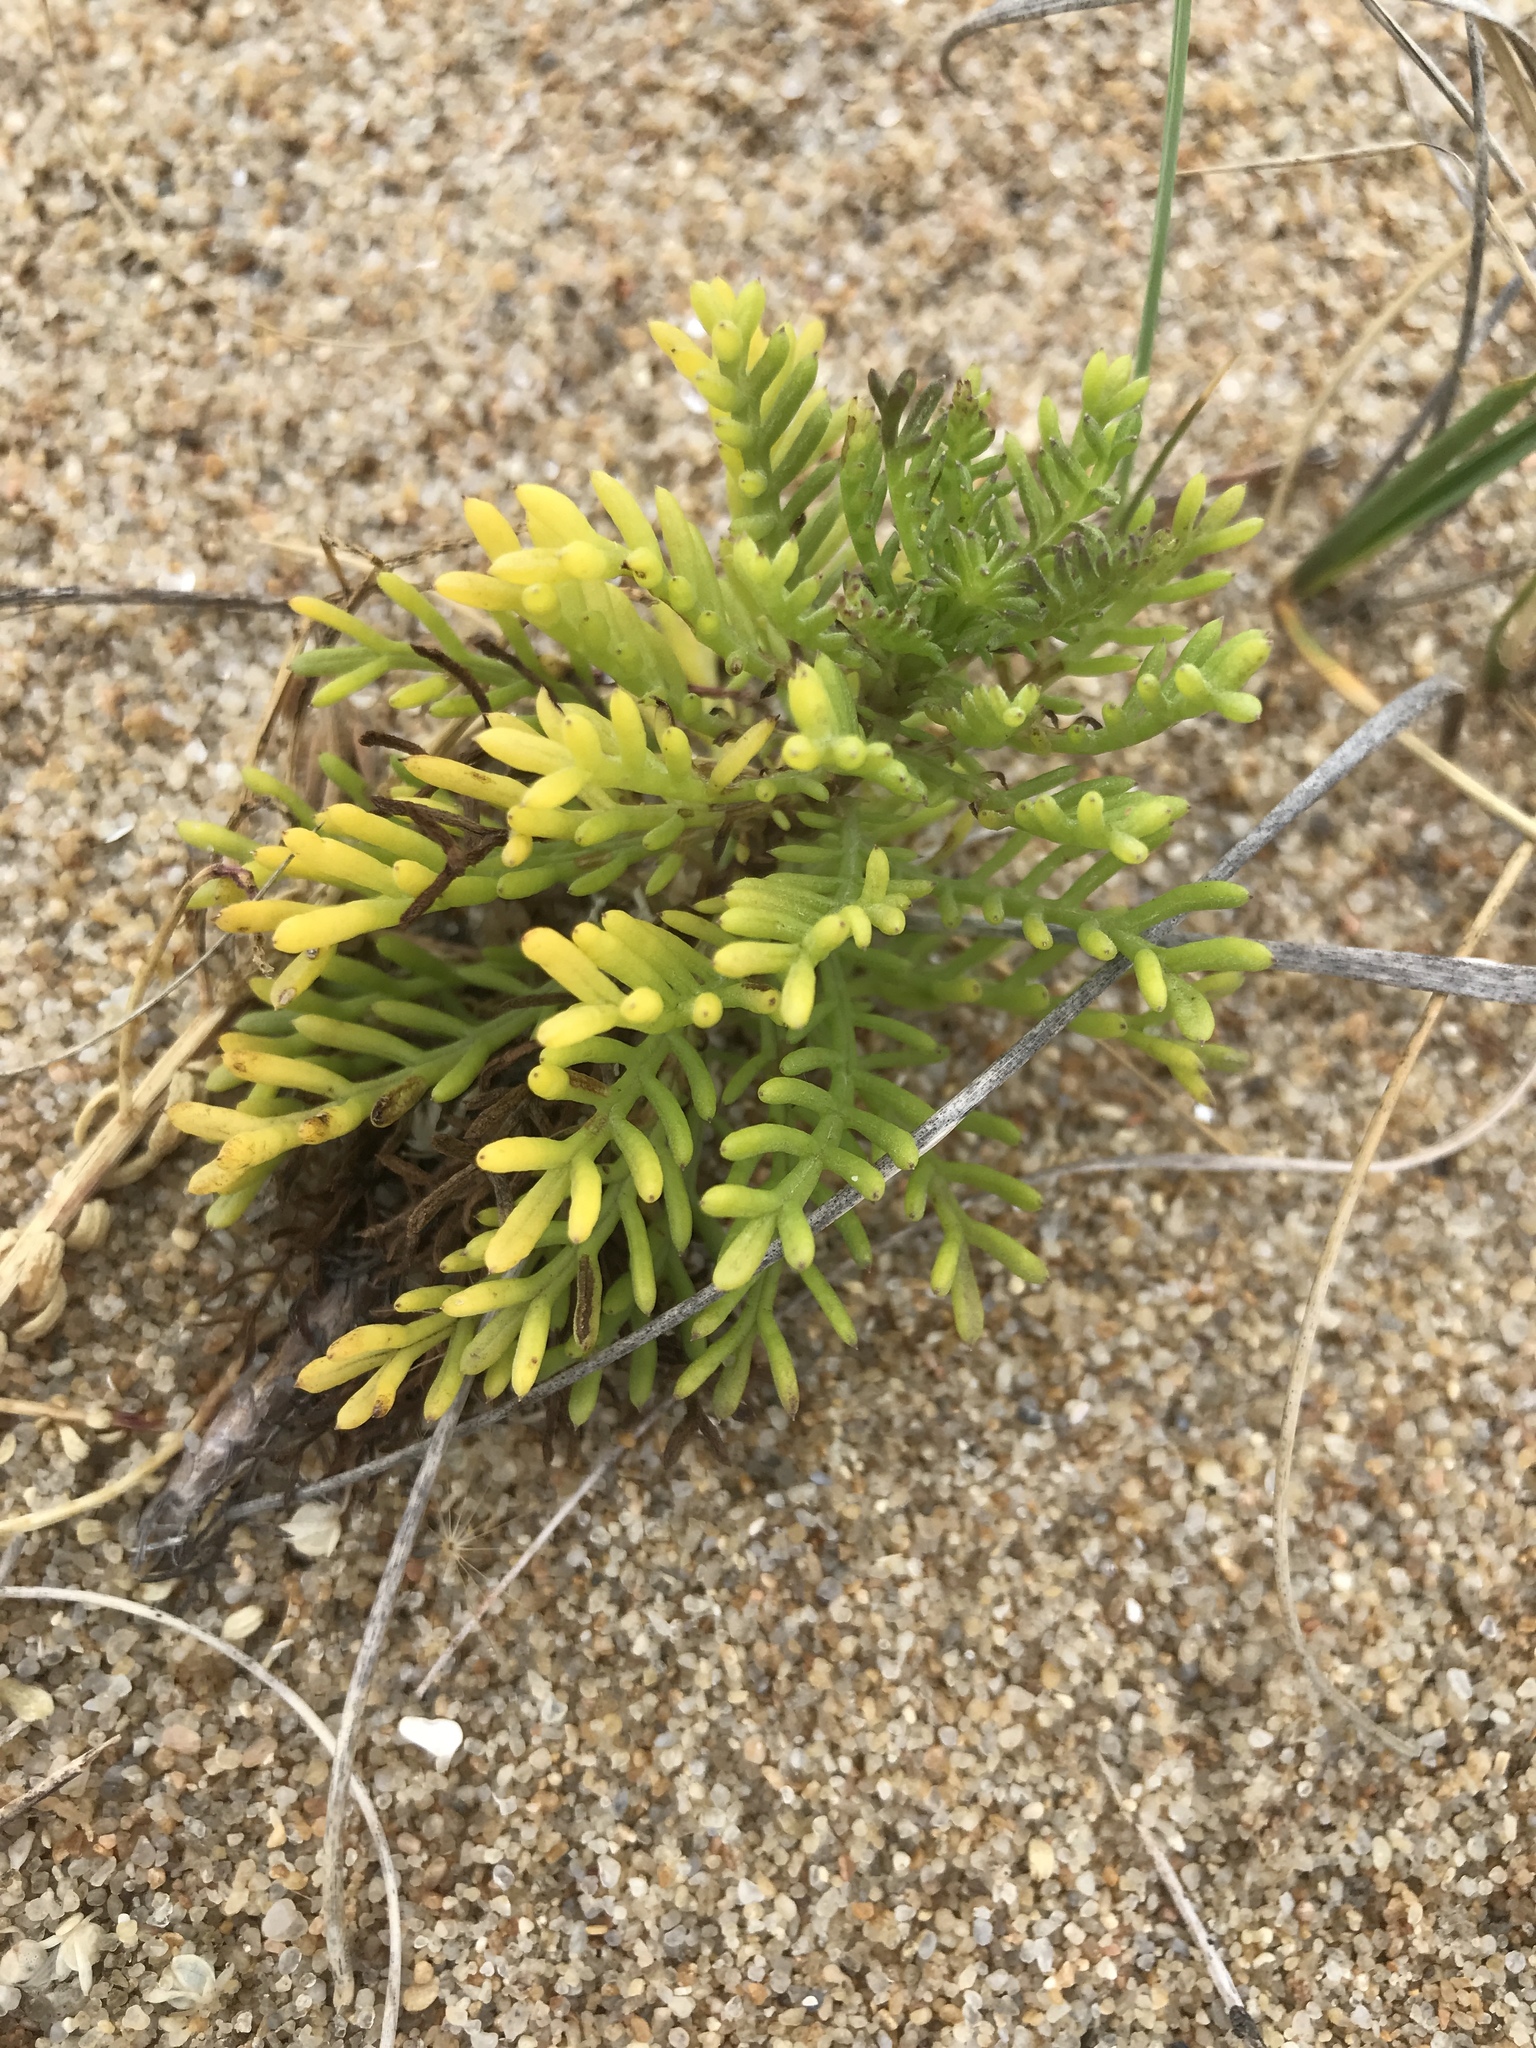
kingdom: Plantae
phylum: Tracheophyta
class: Magnoliopsida
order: Asterales
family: Asteraceae
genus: Senecio
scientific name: Senecio platensis
